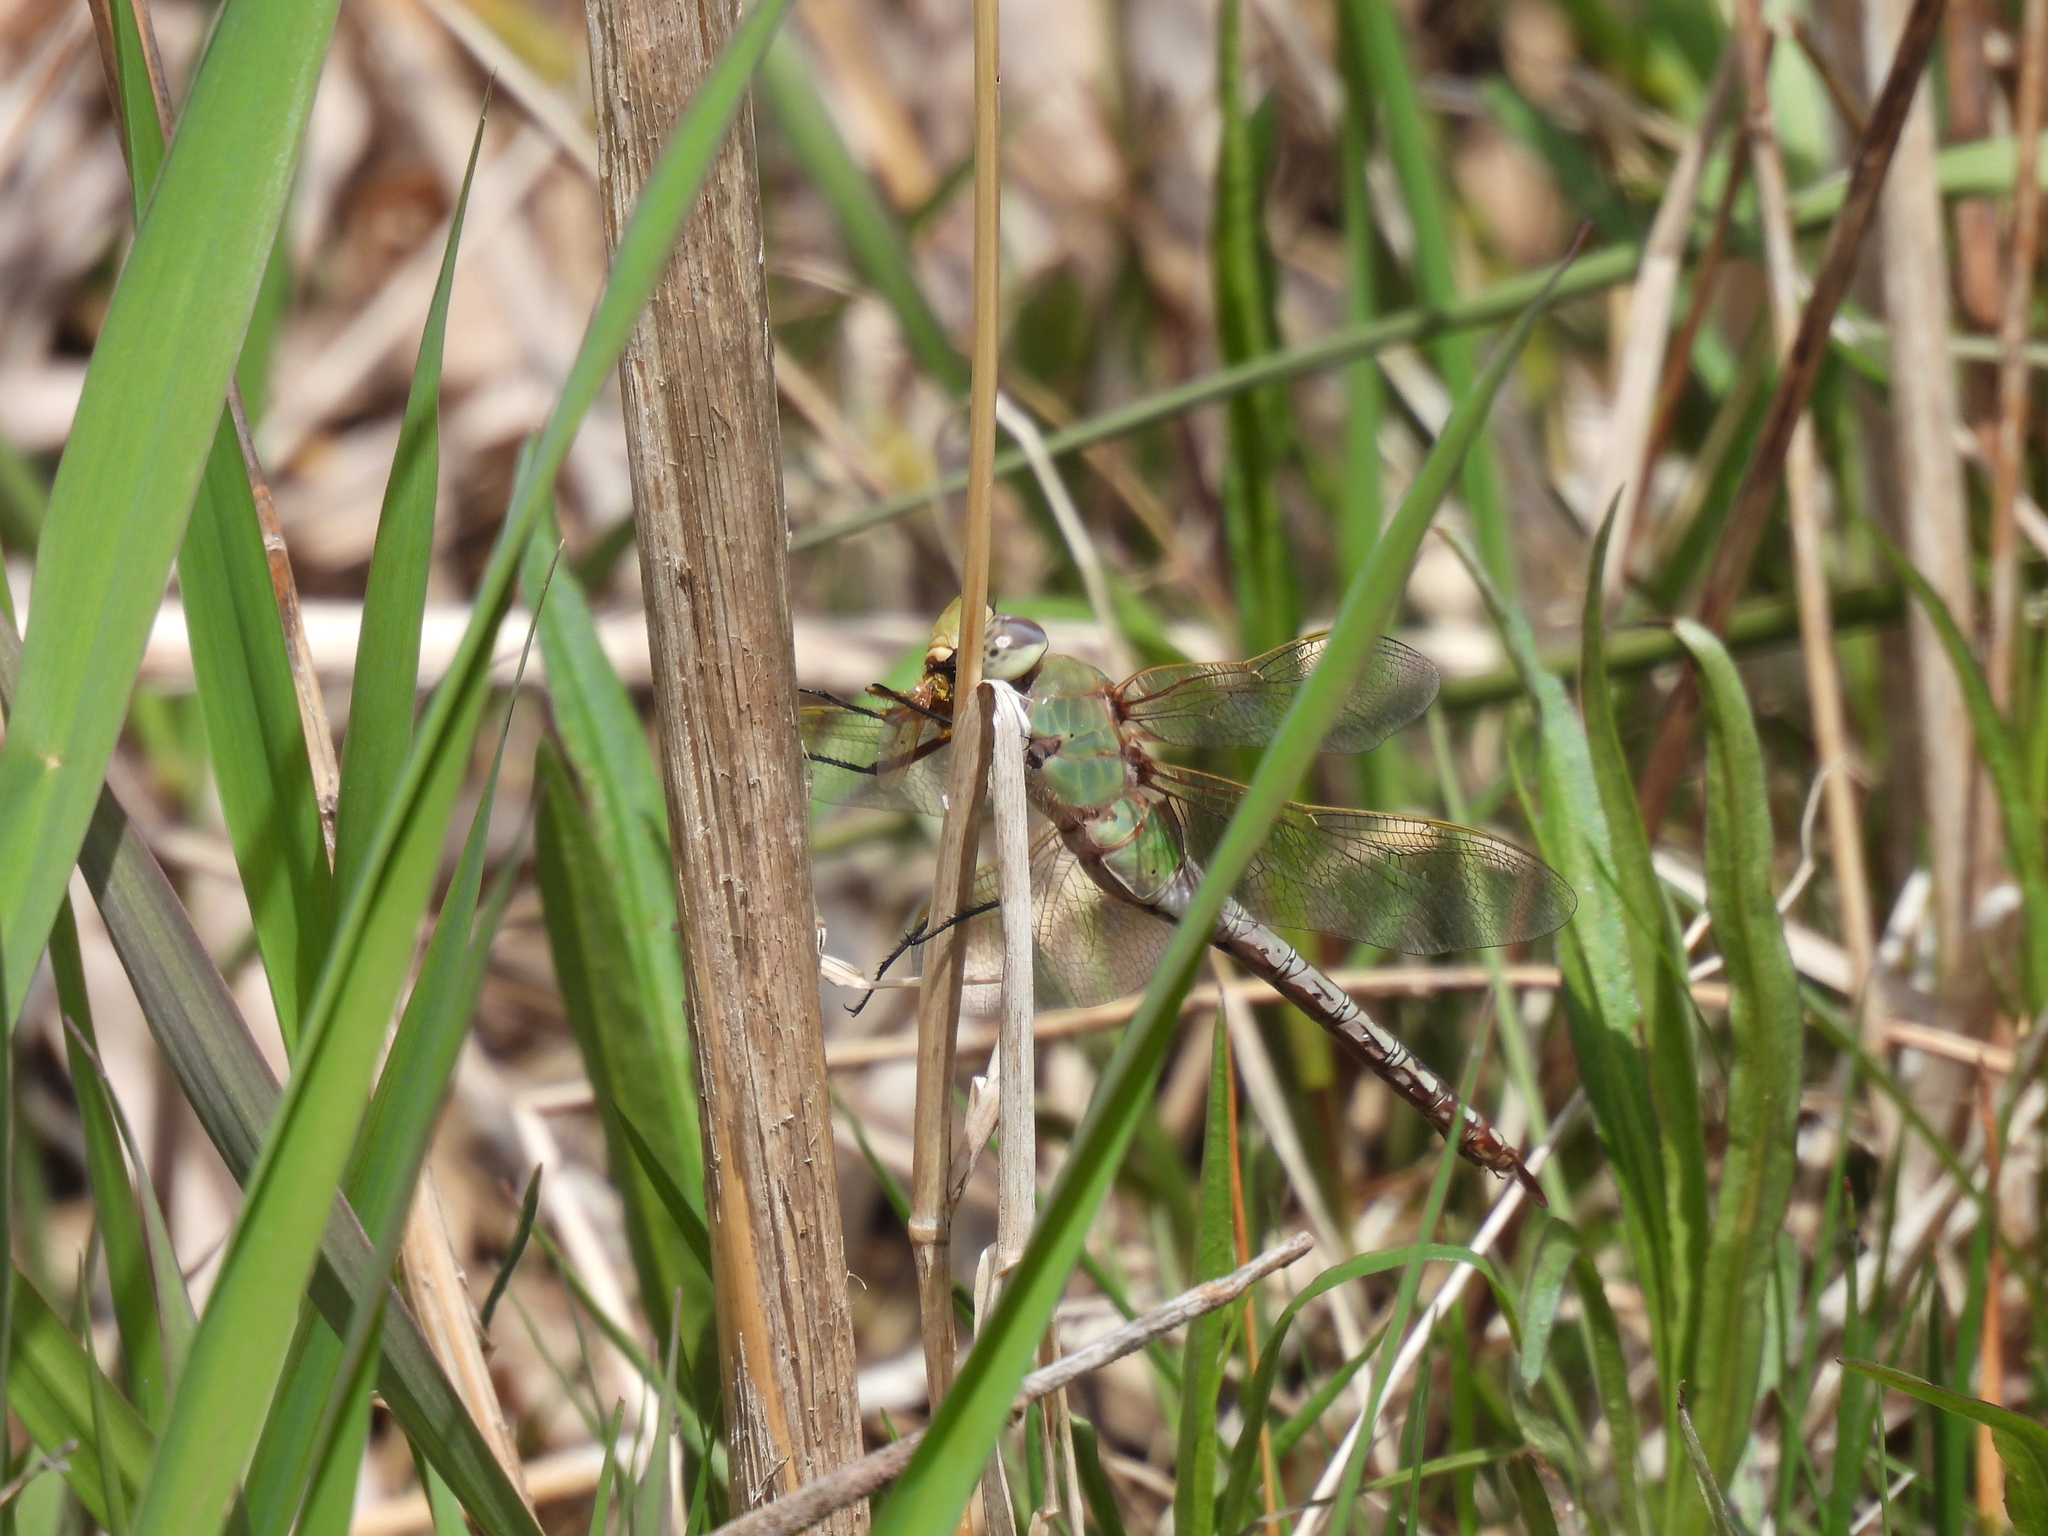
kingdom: Animalia
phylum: Arthropoda
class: Insecta
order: Odonata
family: Aeshnidae
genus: Anax
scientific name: Anax junius
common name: Common green darner
